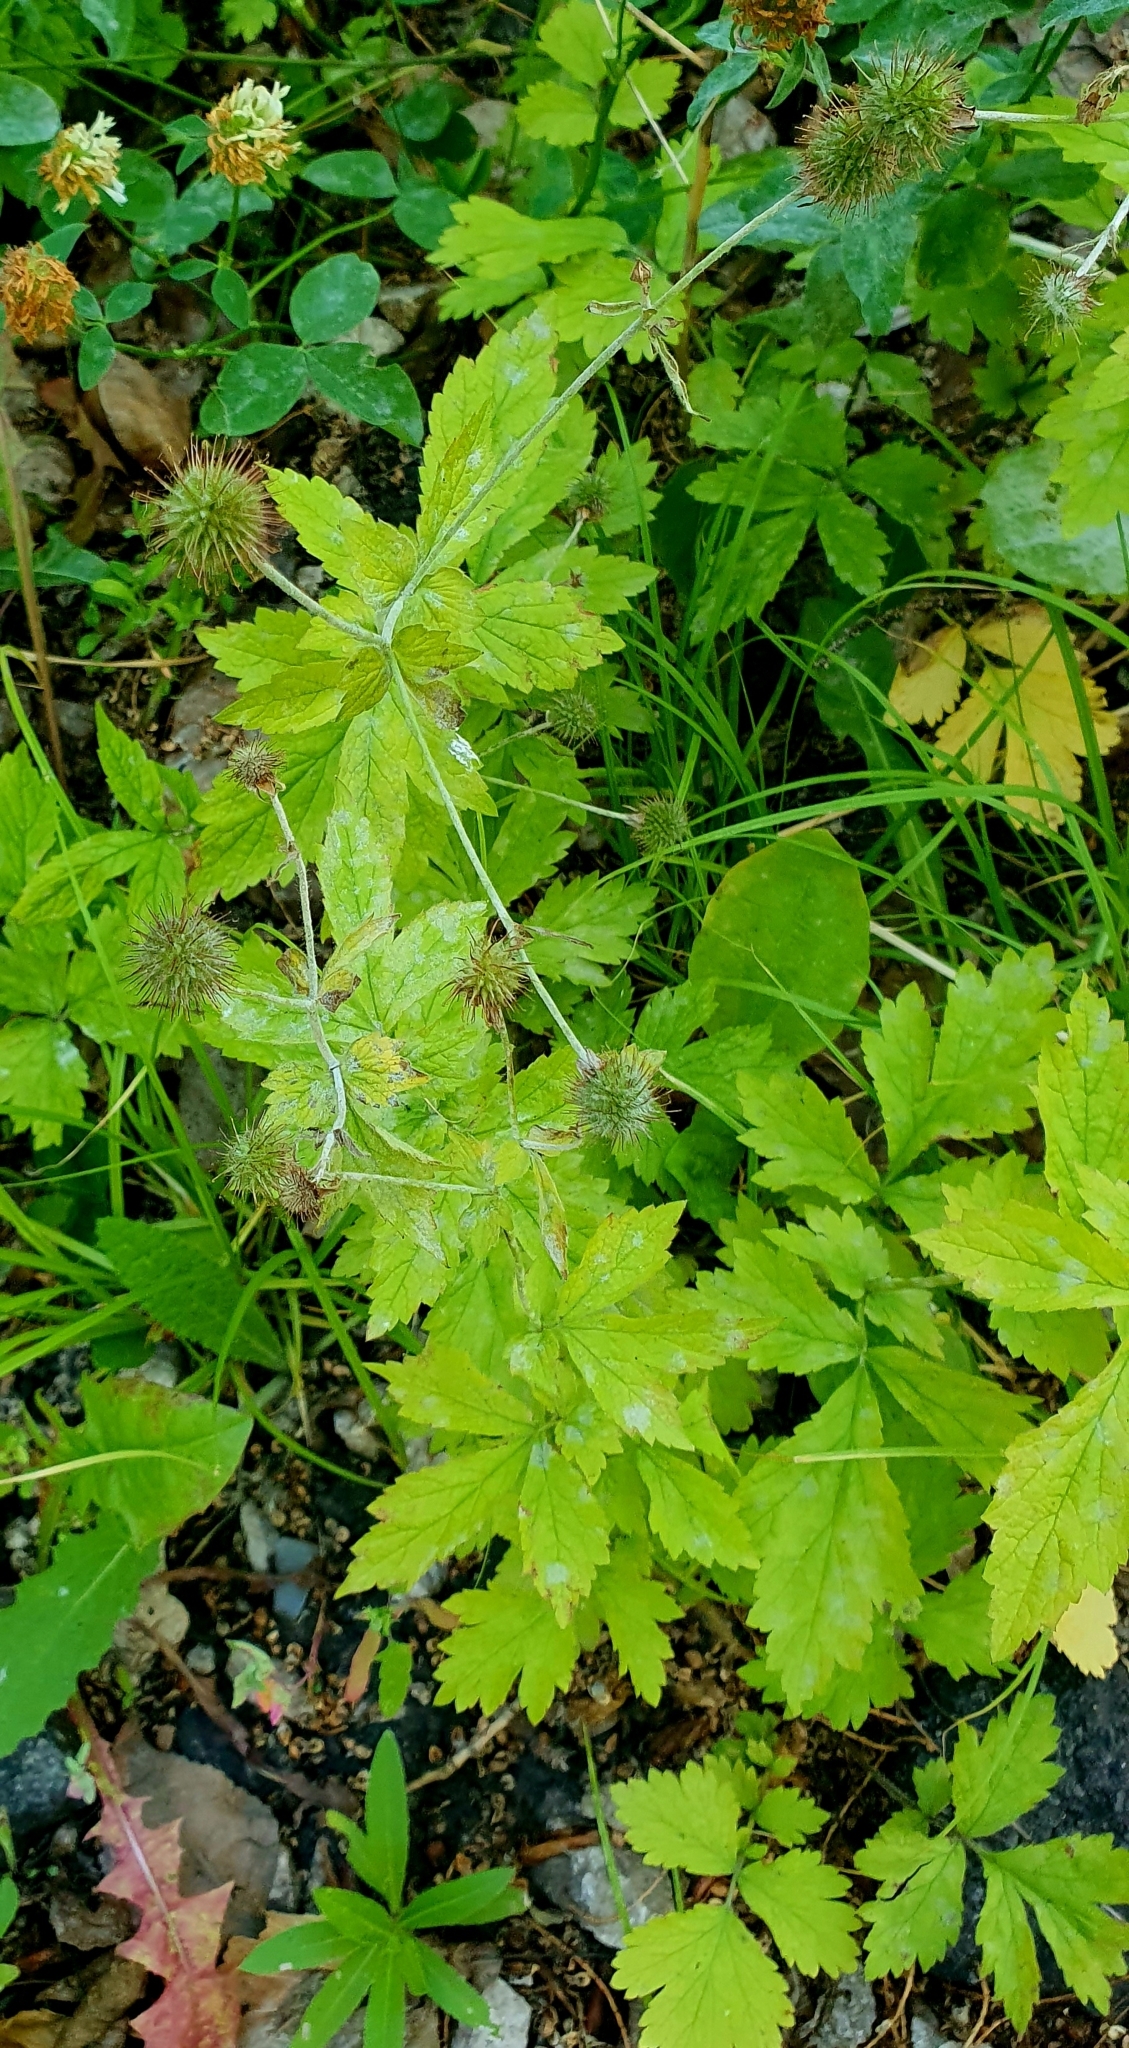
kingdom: Plantae
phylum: Tracheophyta
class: Magnoliopsida
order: Rosales
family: Rosaceae
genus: Geum
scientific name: Geum urbanum
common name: Wood avens
